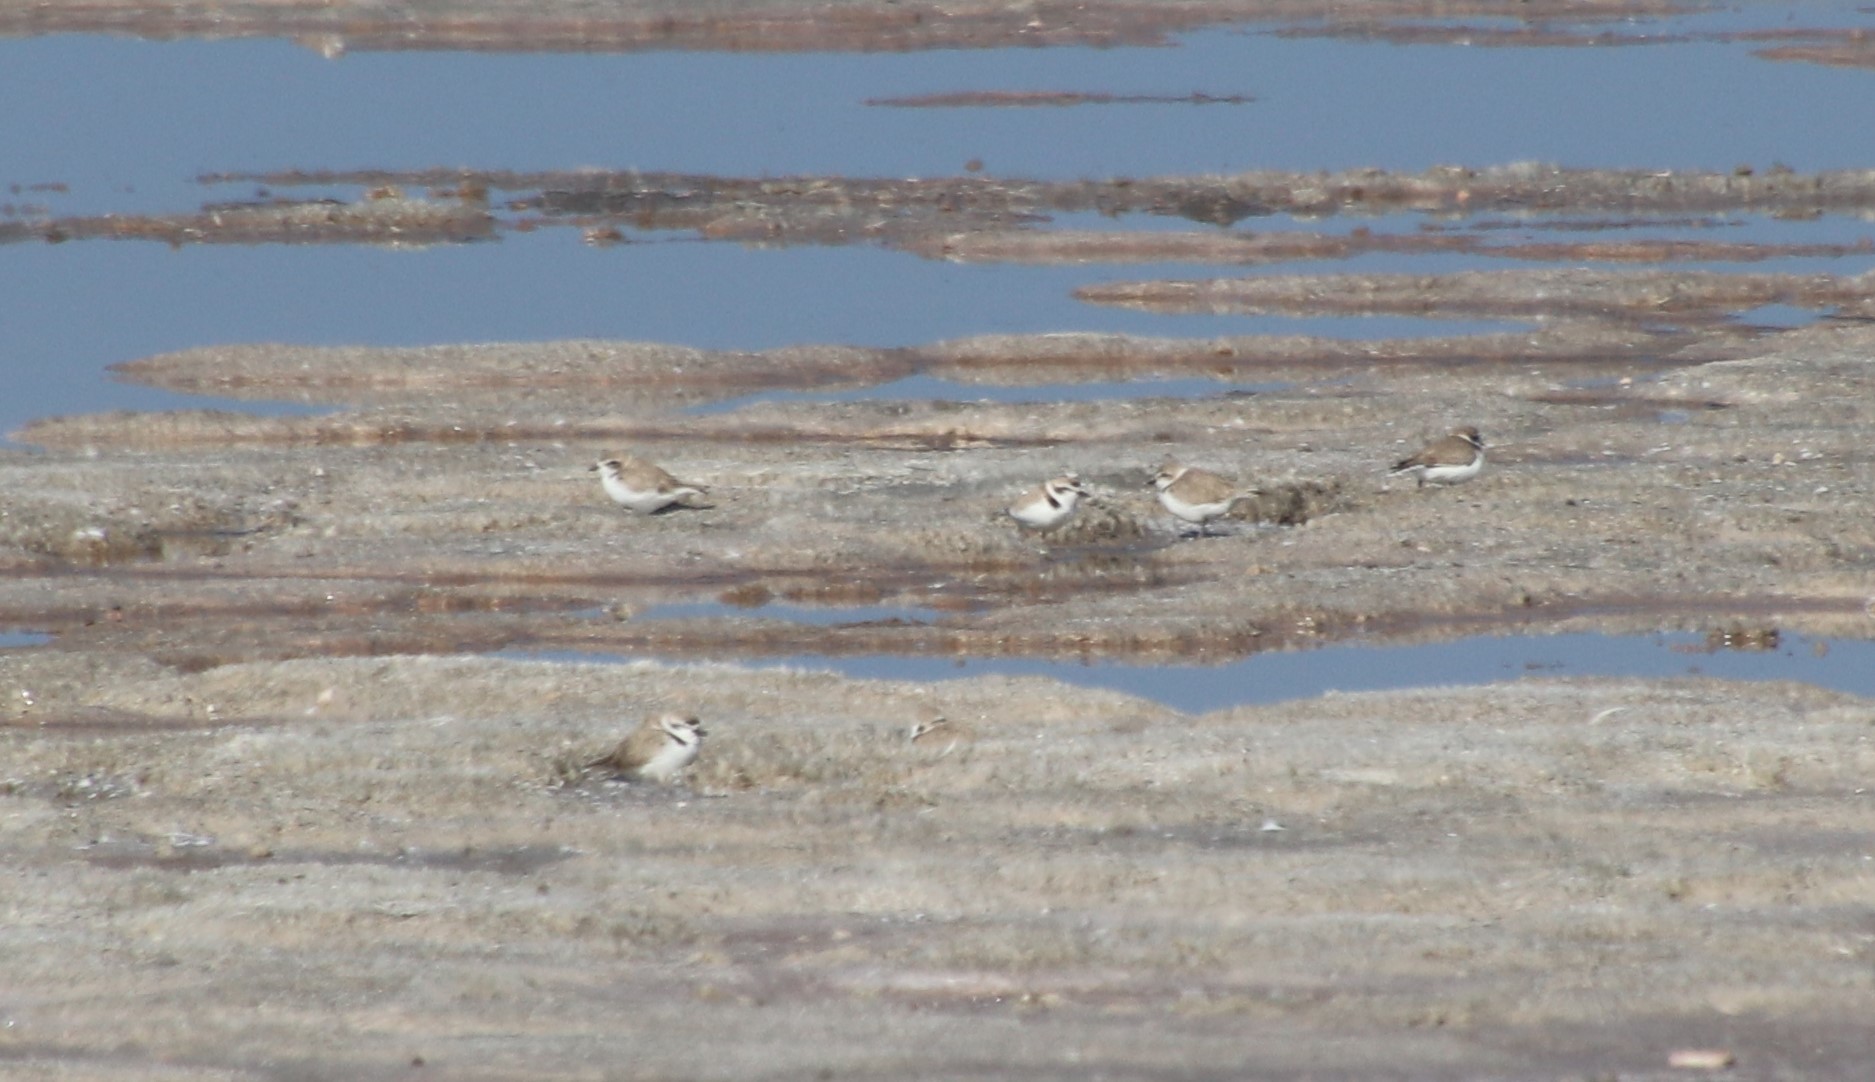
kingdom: Animalia
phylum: Chordata
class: Aves
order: Charadriiformes
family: Charadriidae
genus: Anarhynchus
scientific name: Anarhynchus
